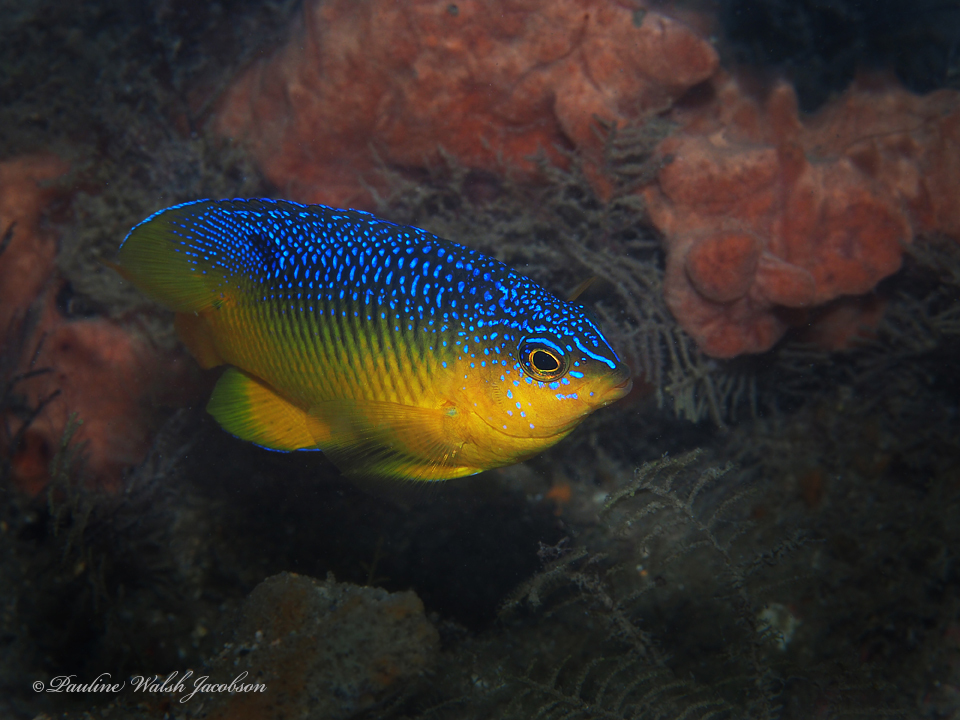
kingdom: Animalia
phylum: Chordata
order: Perciformes
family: Pomacentridae
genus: Stegastes
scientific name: Stegastes xanthurus
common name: Cocoa damselfish
